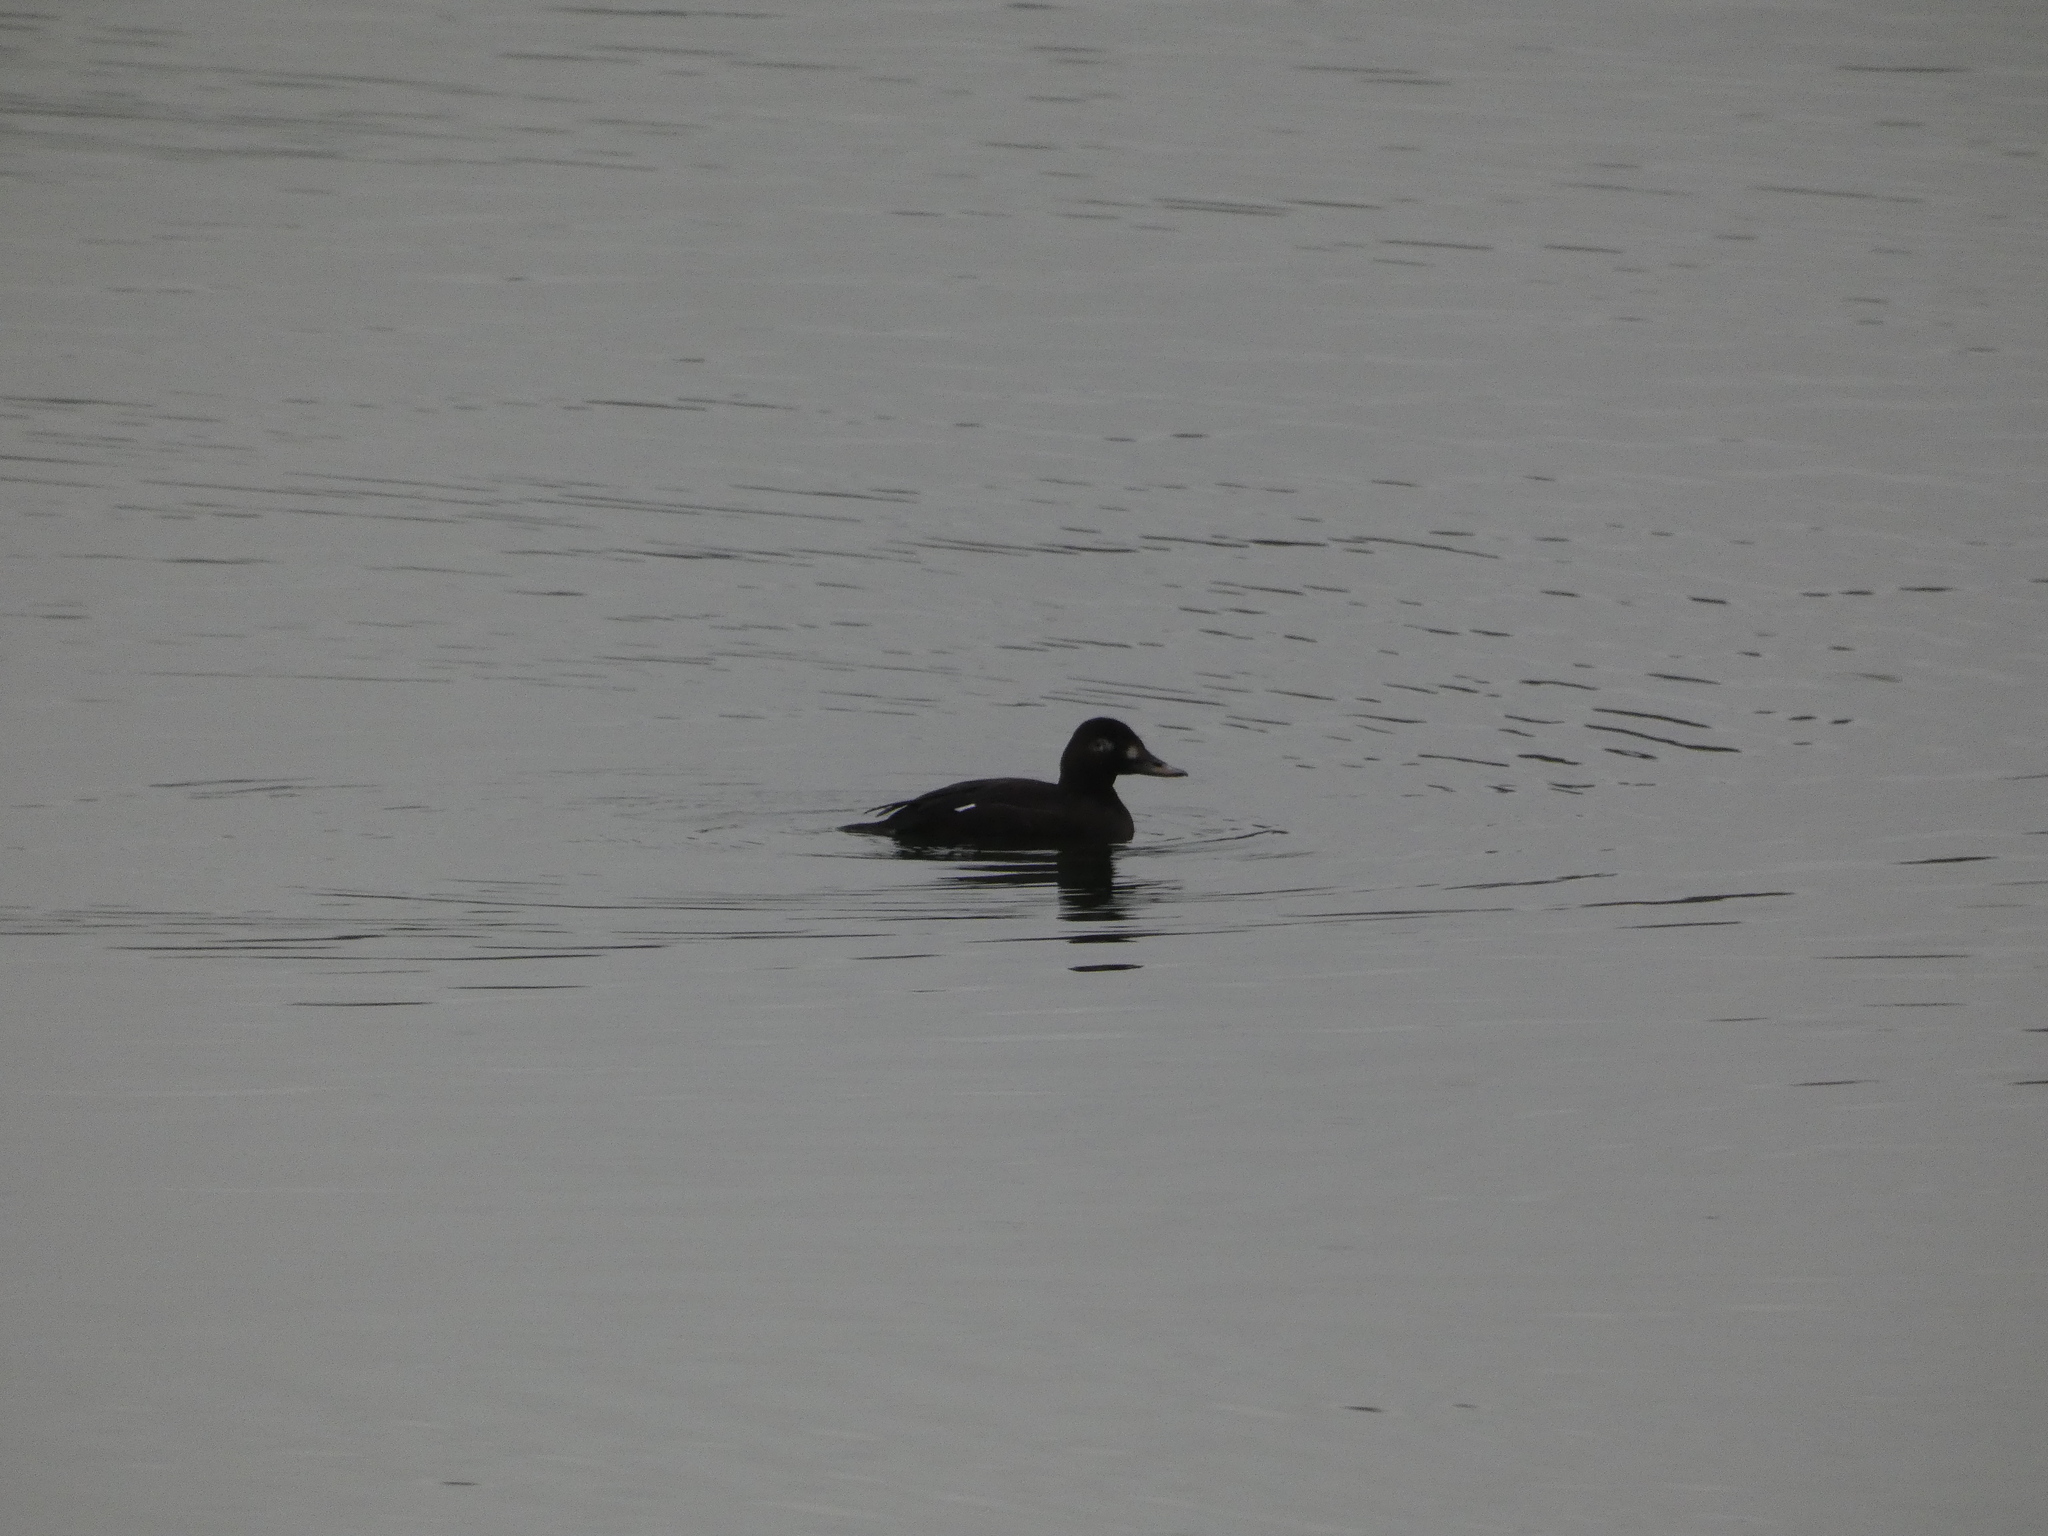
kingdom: Animalia
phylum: Chordata
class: Aves
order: Anseriformes
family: Anatidae
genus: Melanitta
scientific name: Melanitta fusca
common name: Velvet scoter
